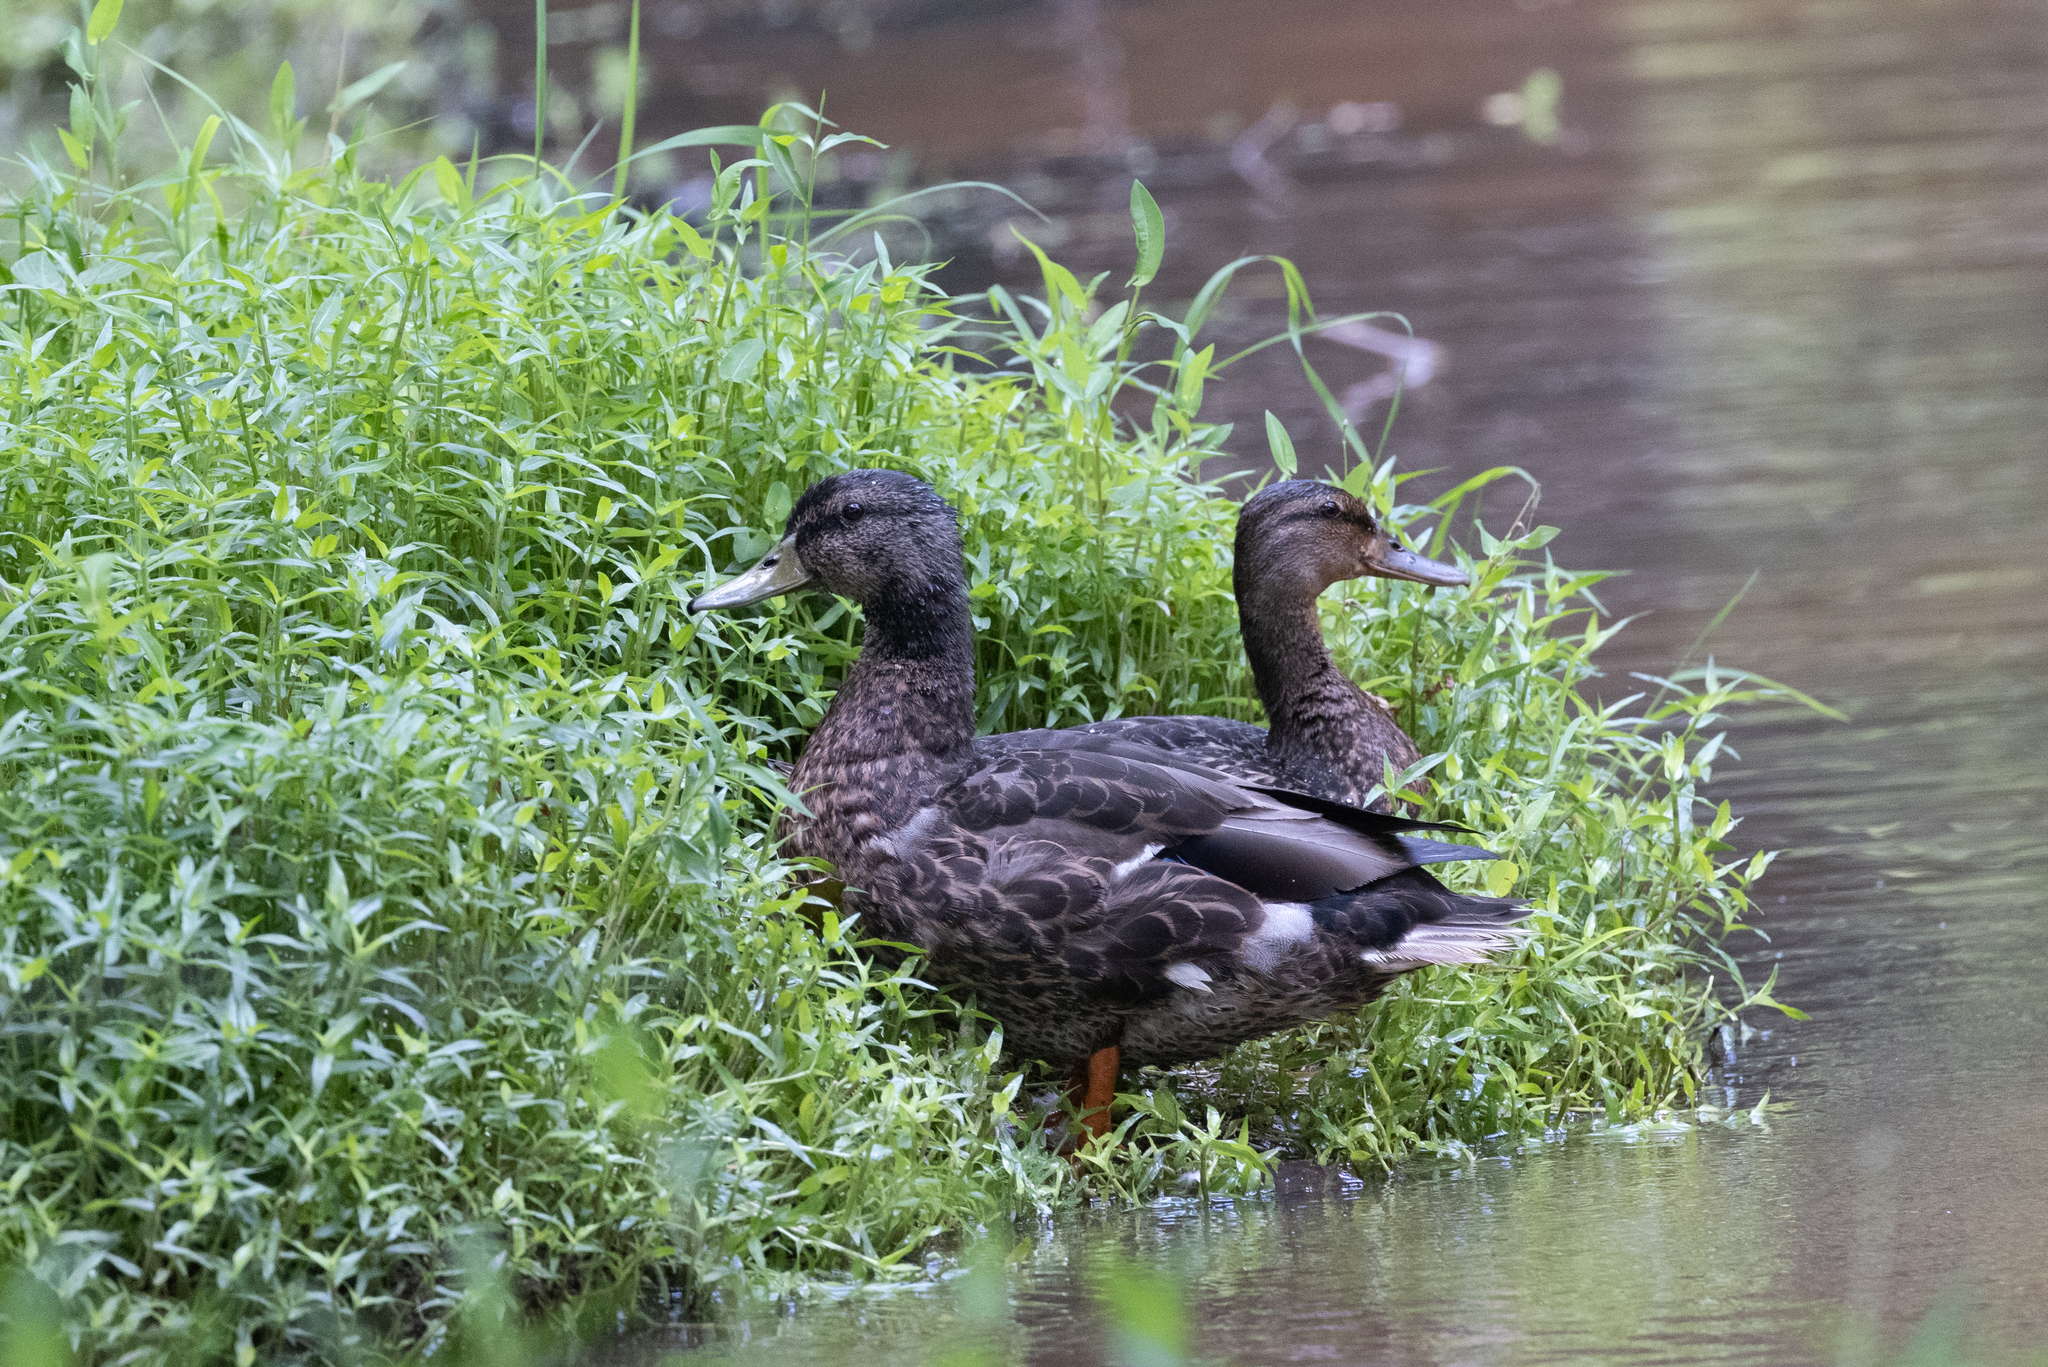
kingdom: Animalia
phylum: Chordata
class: Aves
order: Anseriformes
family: Anatidae
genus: Anas
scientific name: Anas platyrhynchos
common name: Mallard
